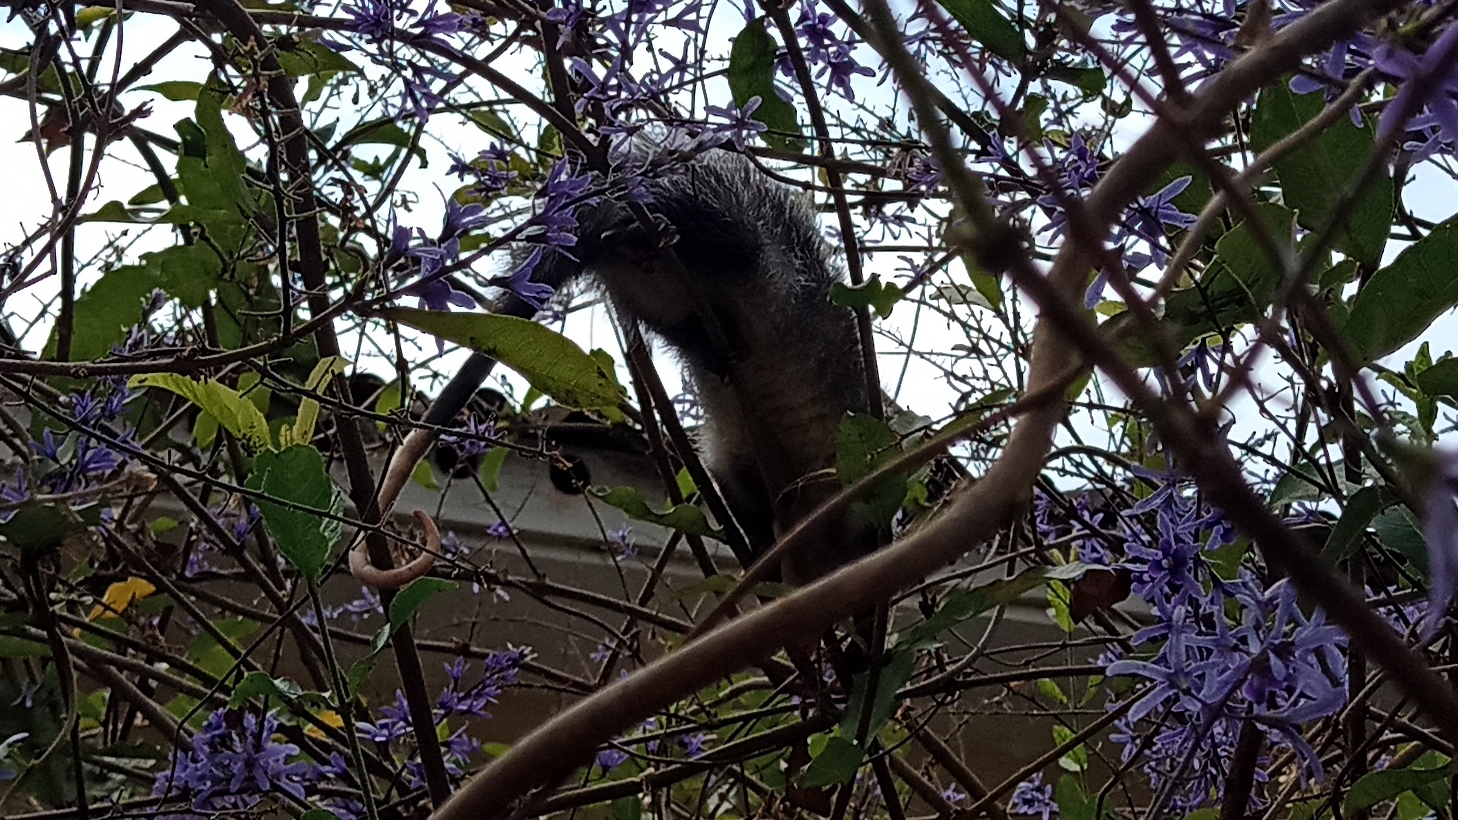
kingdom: Animalia
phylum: Chordata
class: Mammalia
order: Didelphimorphia
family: Didelphidae
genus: Didelphis
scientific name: Didelphis albiventris
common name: White-eared opossum
